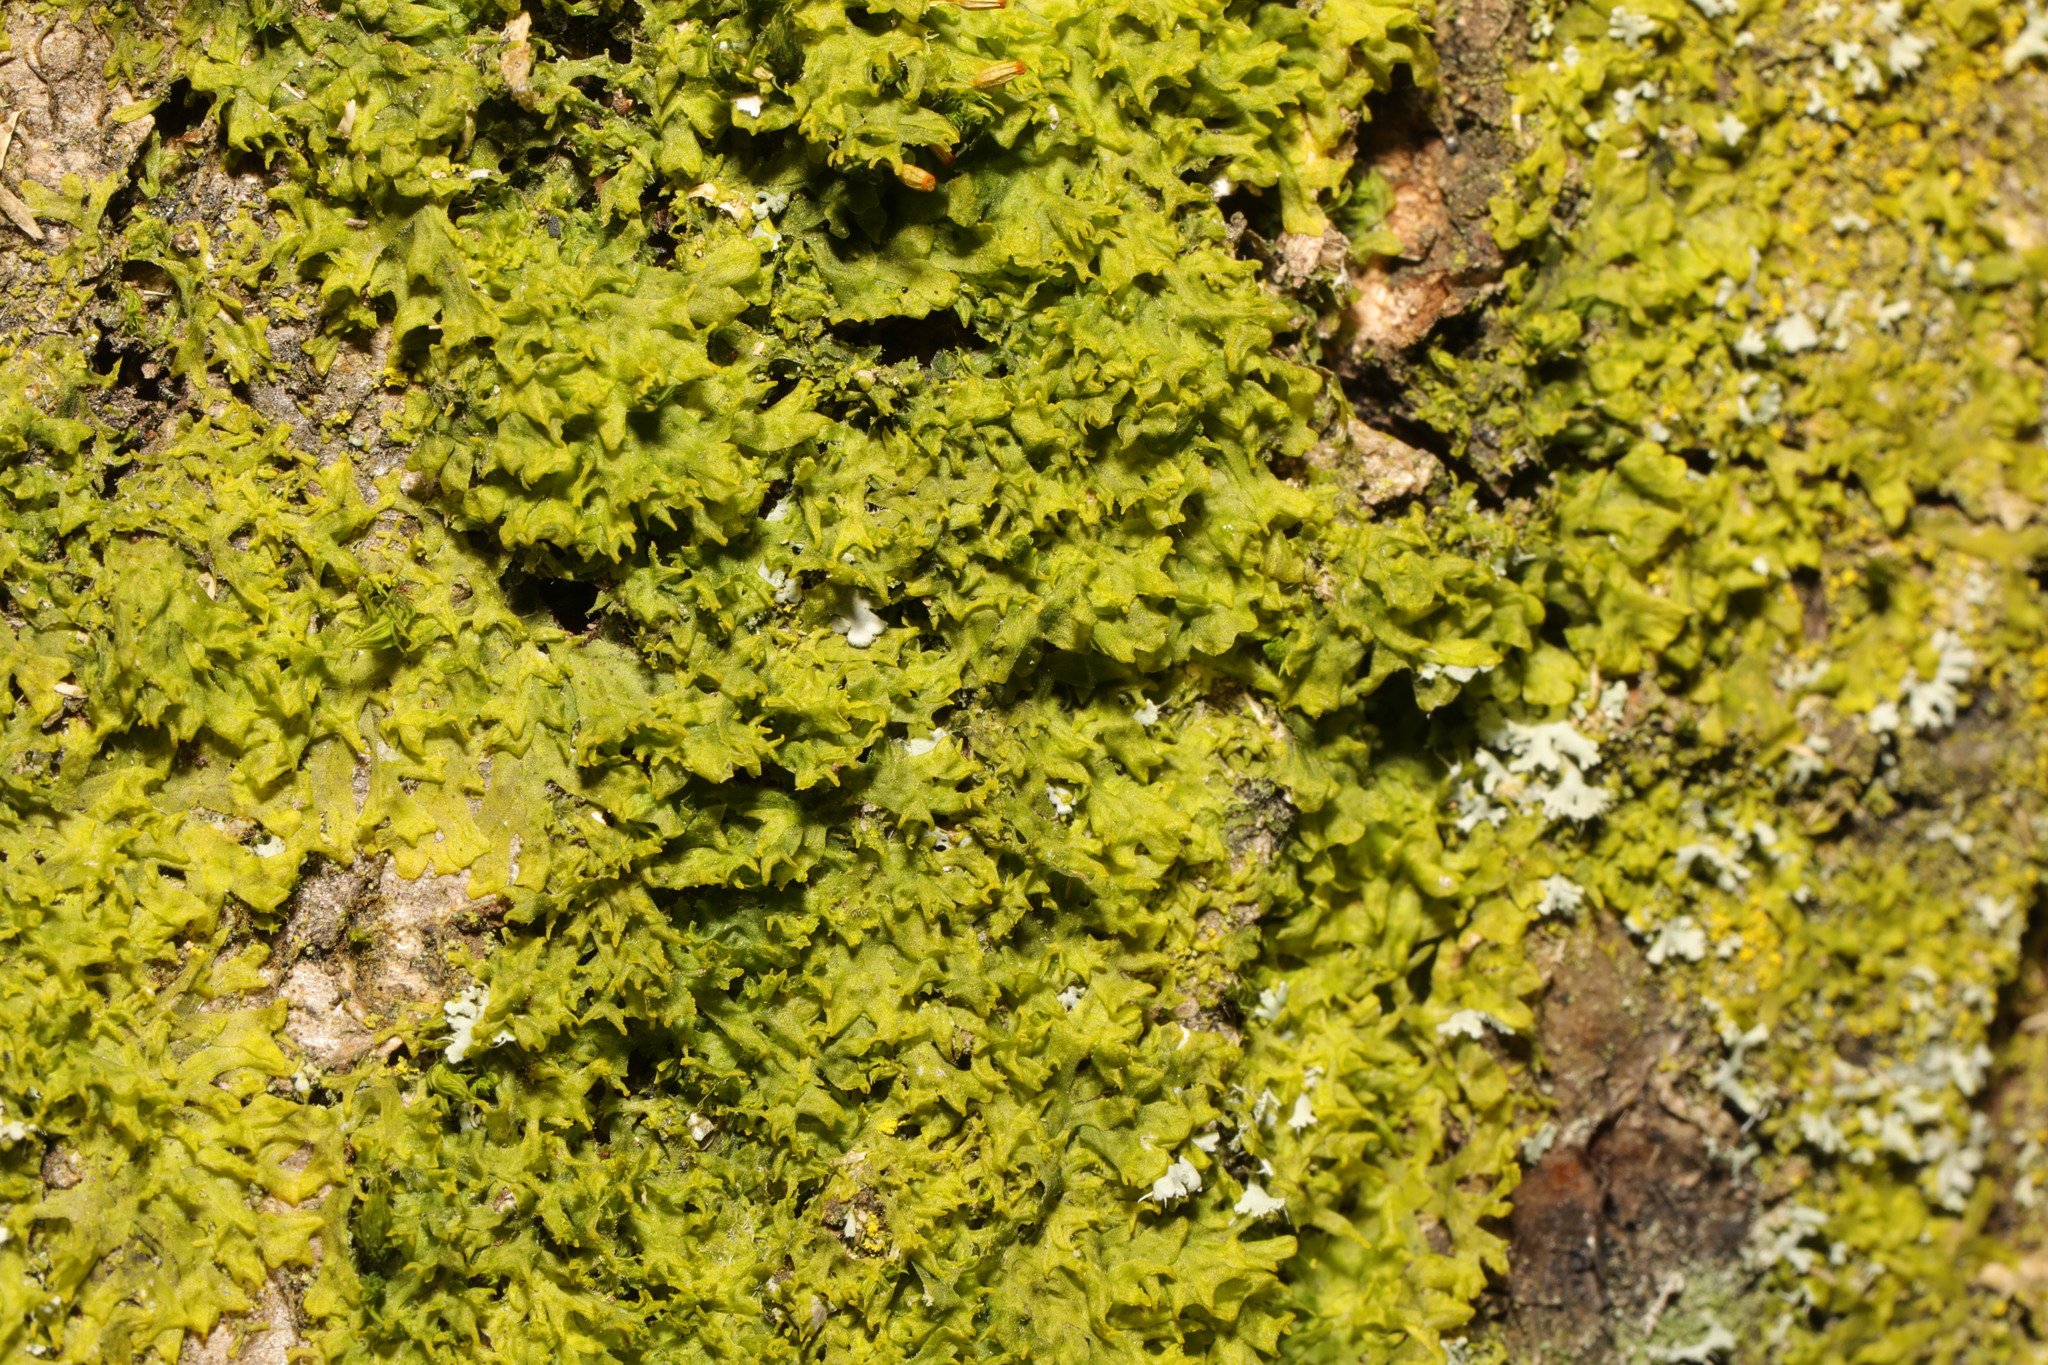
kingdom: Plantae
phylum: Marchantiophyta
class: Jungermanniopsida
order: Metzgeriales
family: Metzgeriaceae
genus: Metzgeria
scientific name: Metzgeria violacea
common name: Blueish veilwort
